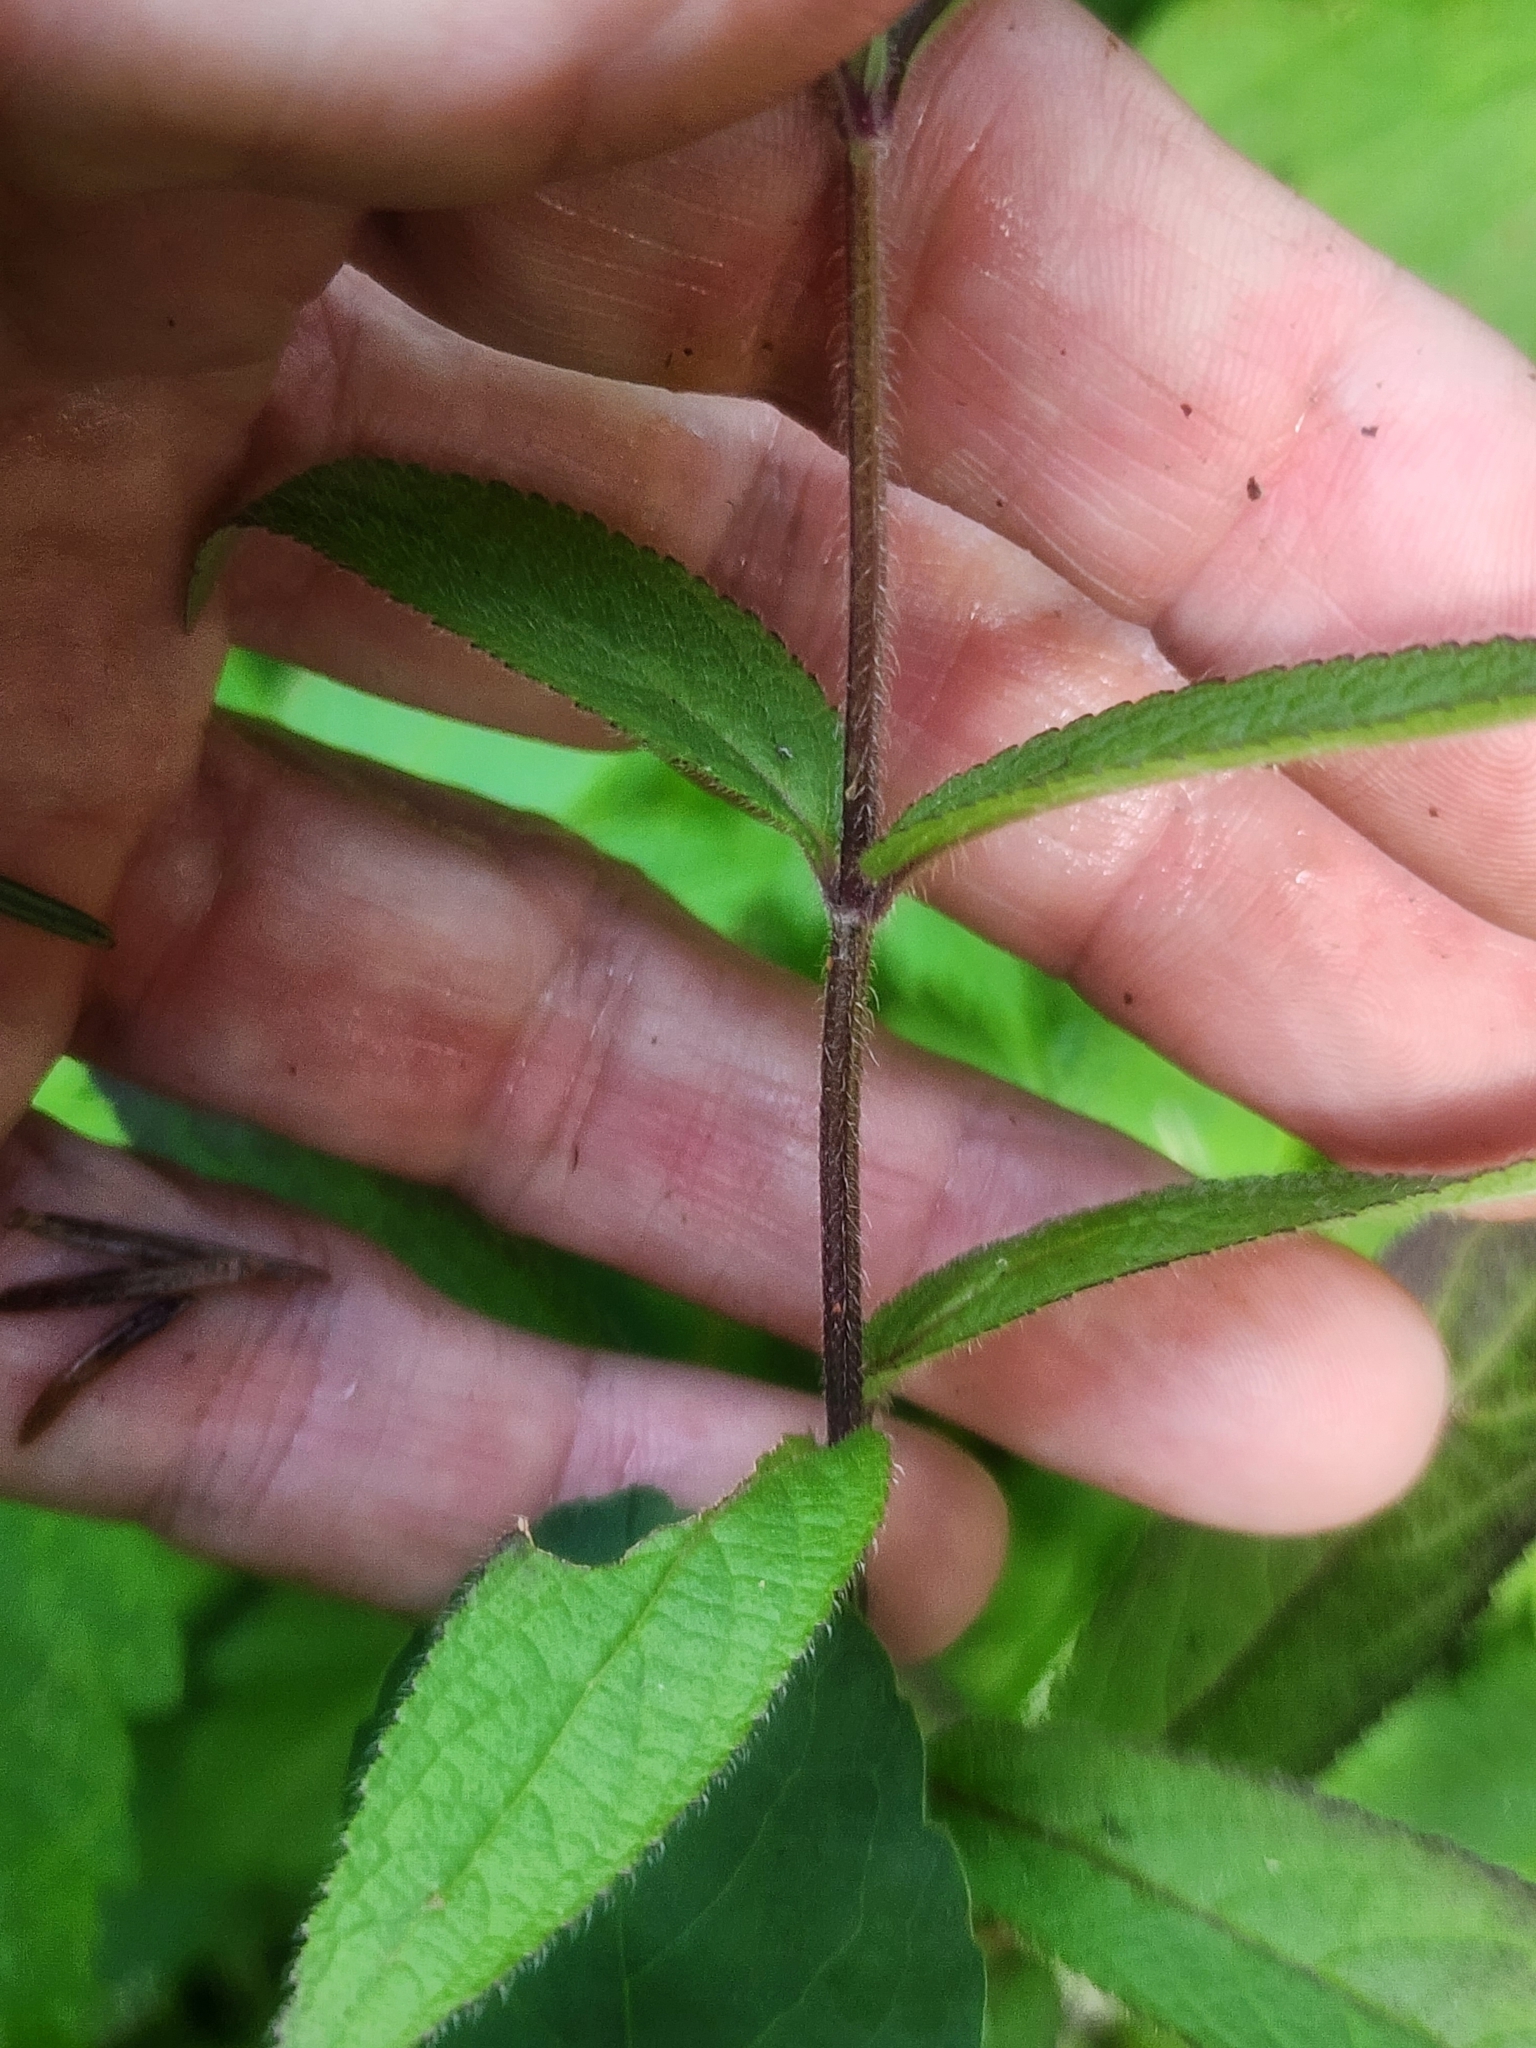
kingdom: Plantae
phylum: Tracheophyta
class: Magnoliopsida
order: Lamiales
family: Lamiaceae
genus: Stachys
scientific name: Stachys hispida
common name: Hispid hedge-nettle
